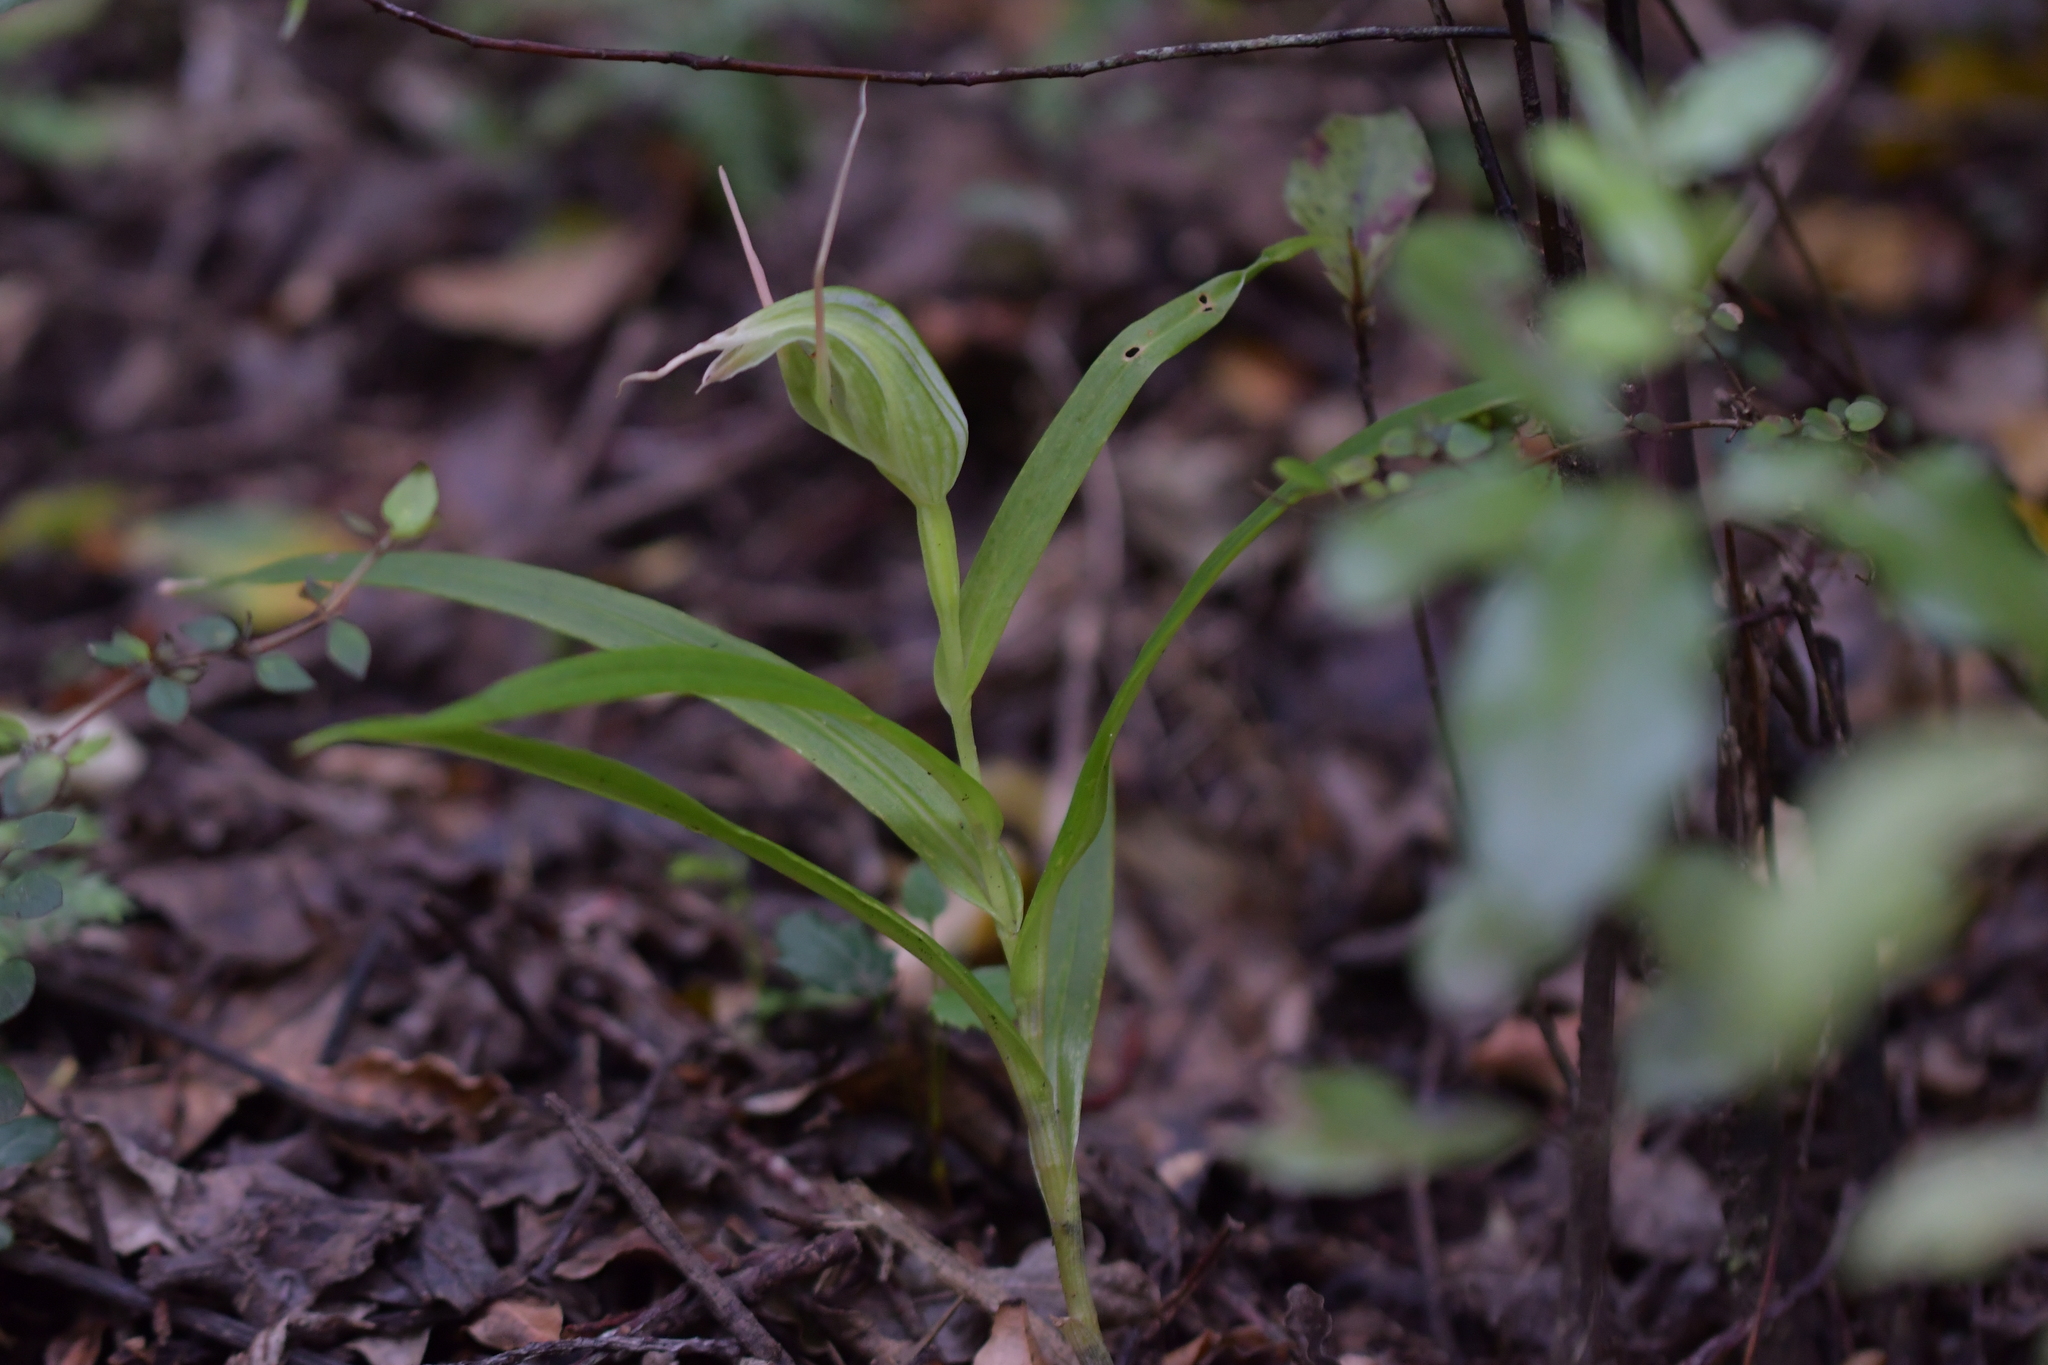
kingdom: Plantae
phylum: Tracheophyta
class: Liliopsida
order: Asparagales
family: Orchidaceae
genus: Pterostylis
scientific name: Pterostylis banksii
